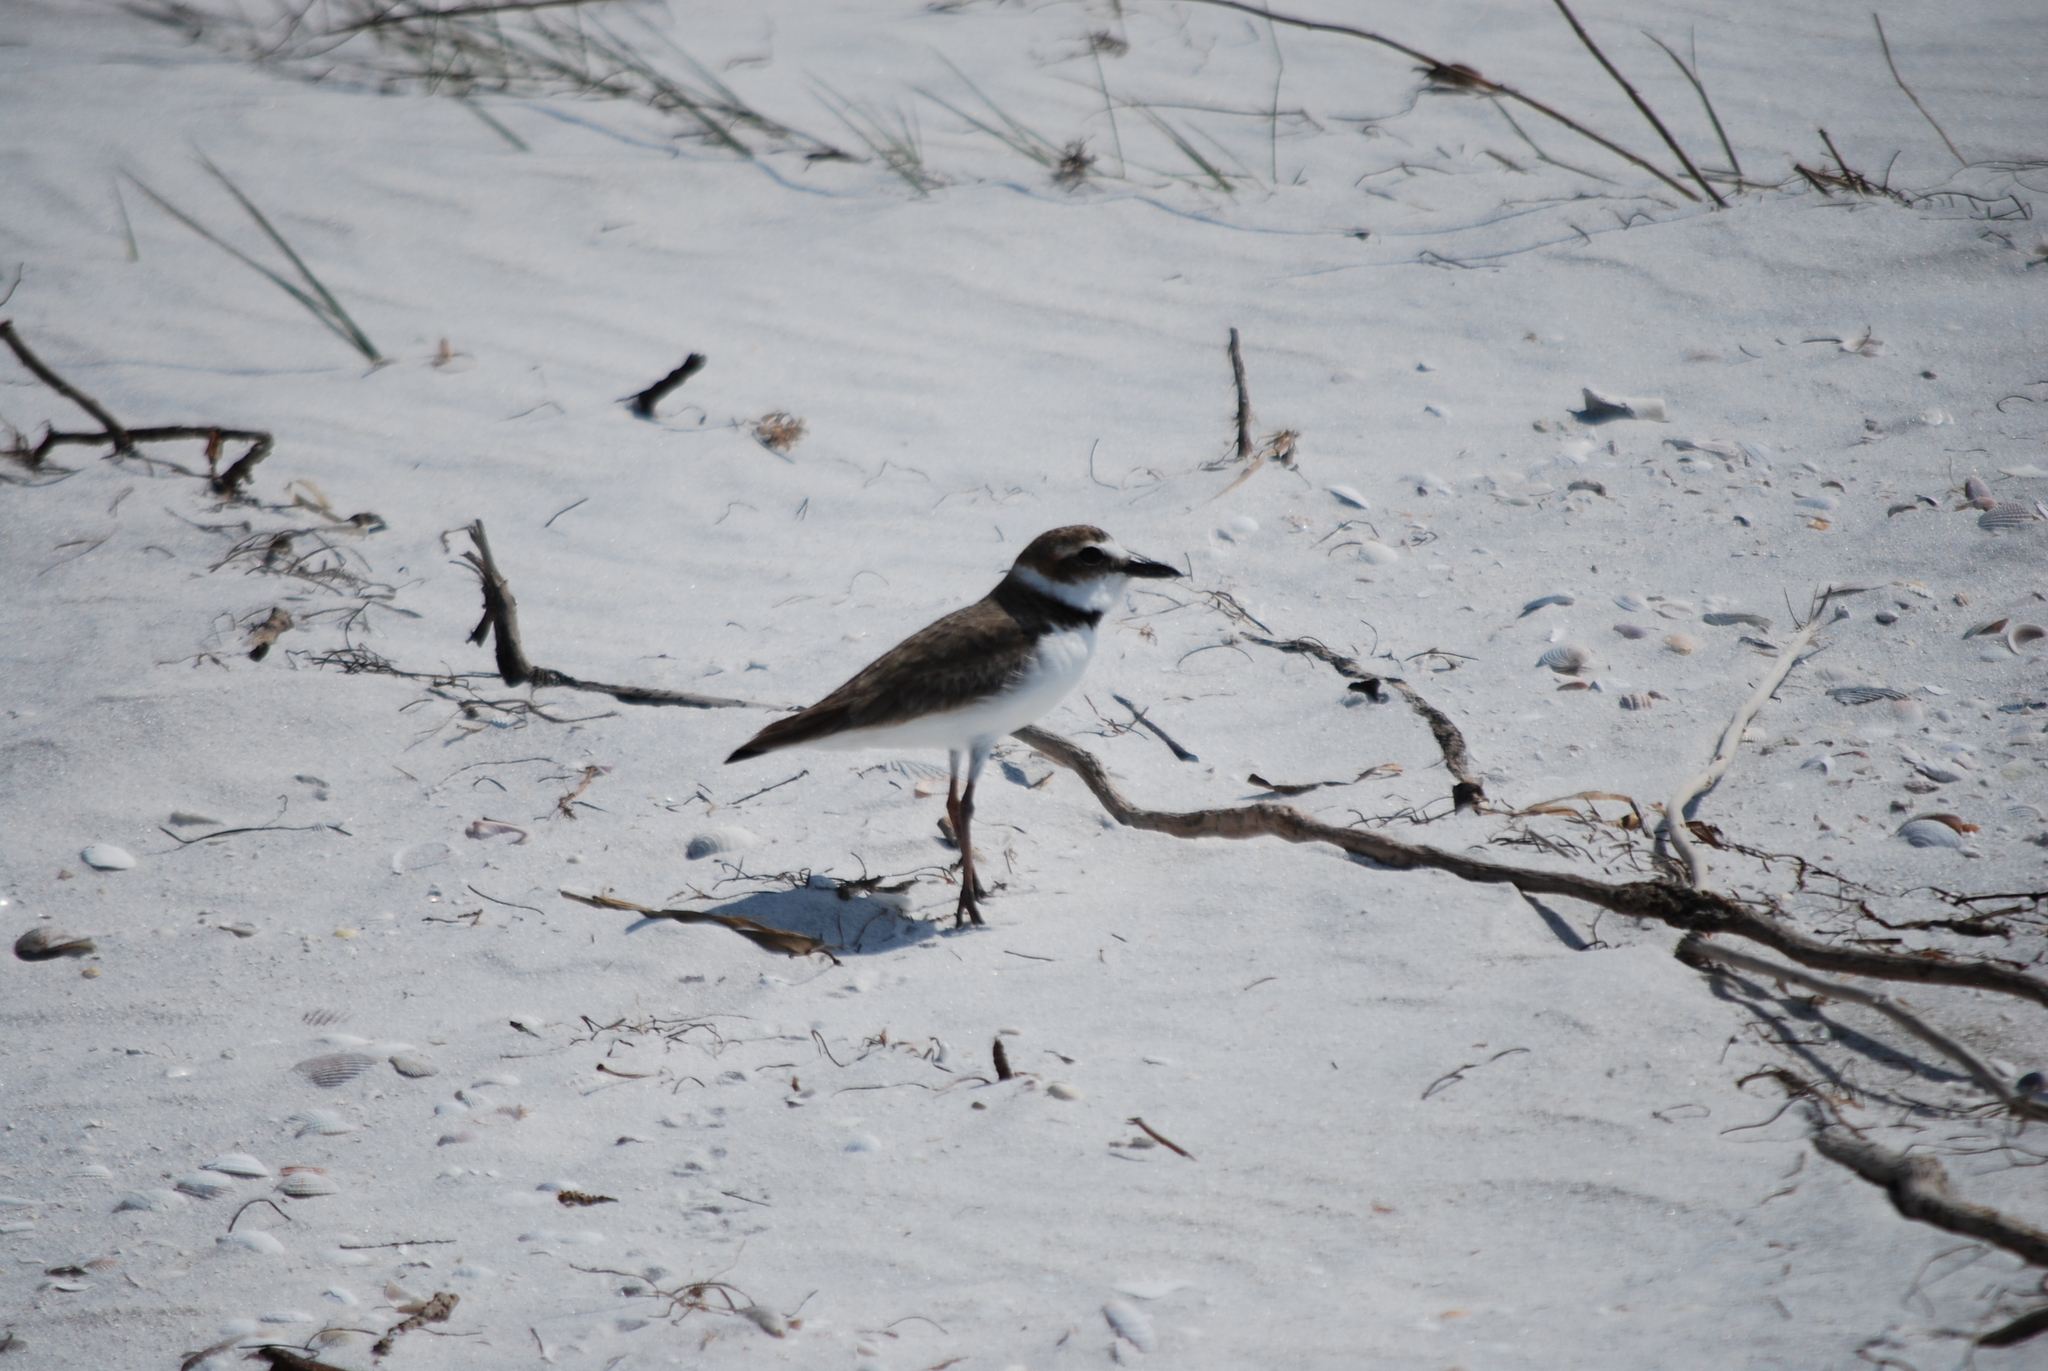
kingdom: Animalia
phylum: Chordata
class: Aves
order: Charadriiformes
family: Charadriidae
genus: Anarhynchus
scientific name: Anarhynchus
